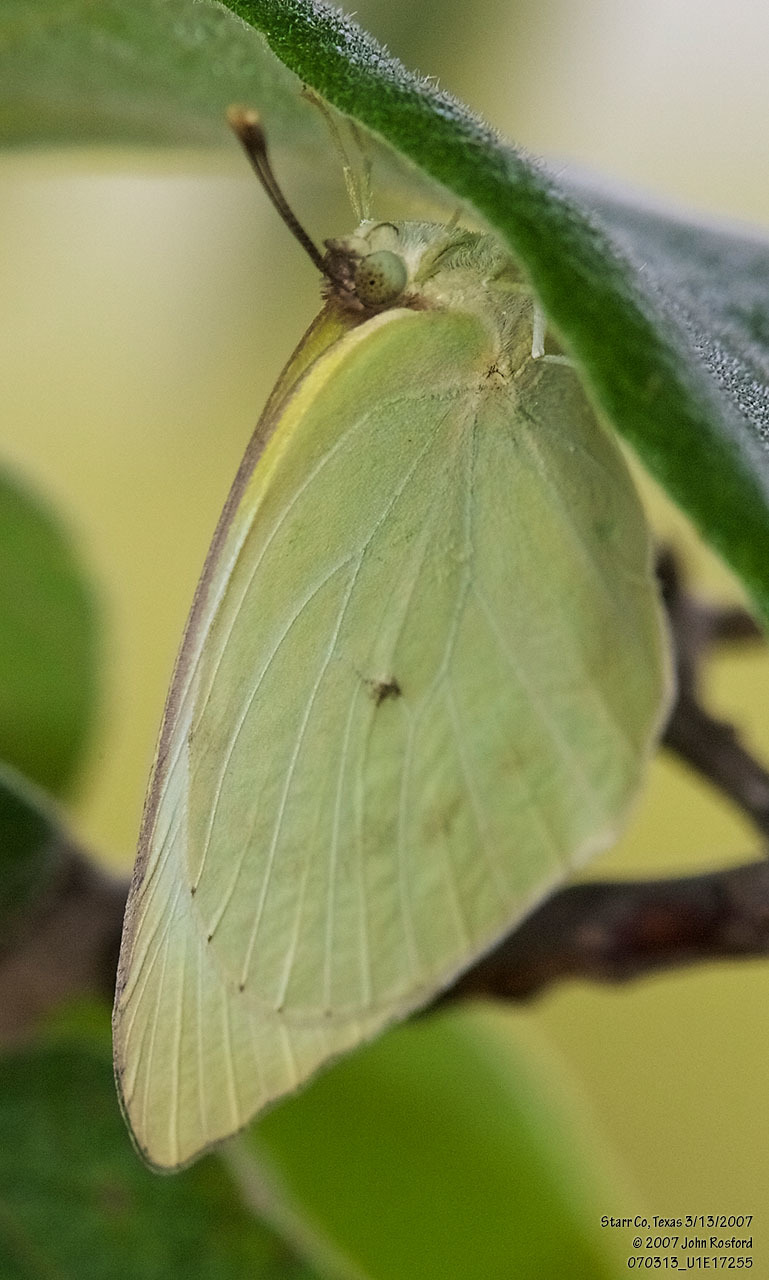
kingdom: Animalia
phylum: Arthropoda
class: Insecta
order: Lepidoptera
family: Pieridae
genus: Kricogonia
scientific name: Kricogonia lyside
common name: Guayacan sulphur,
